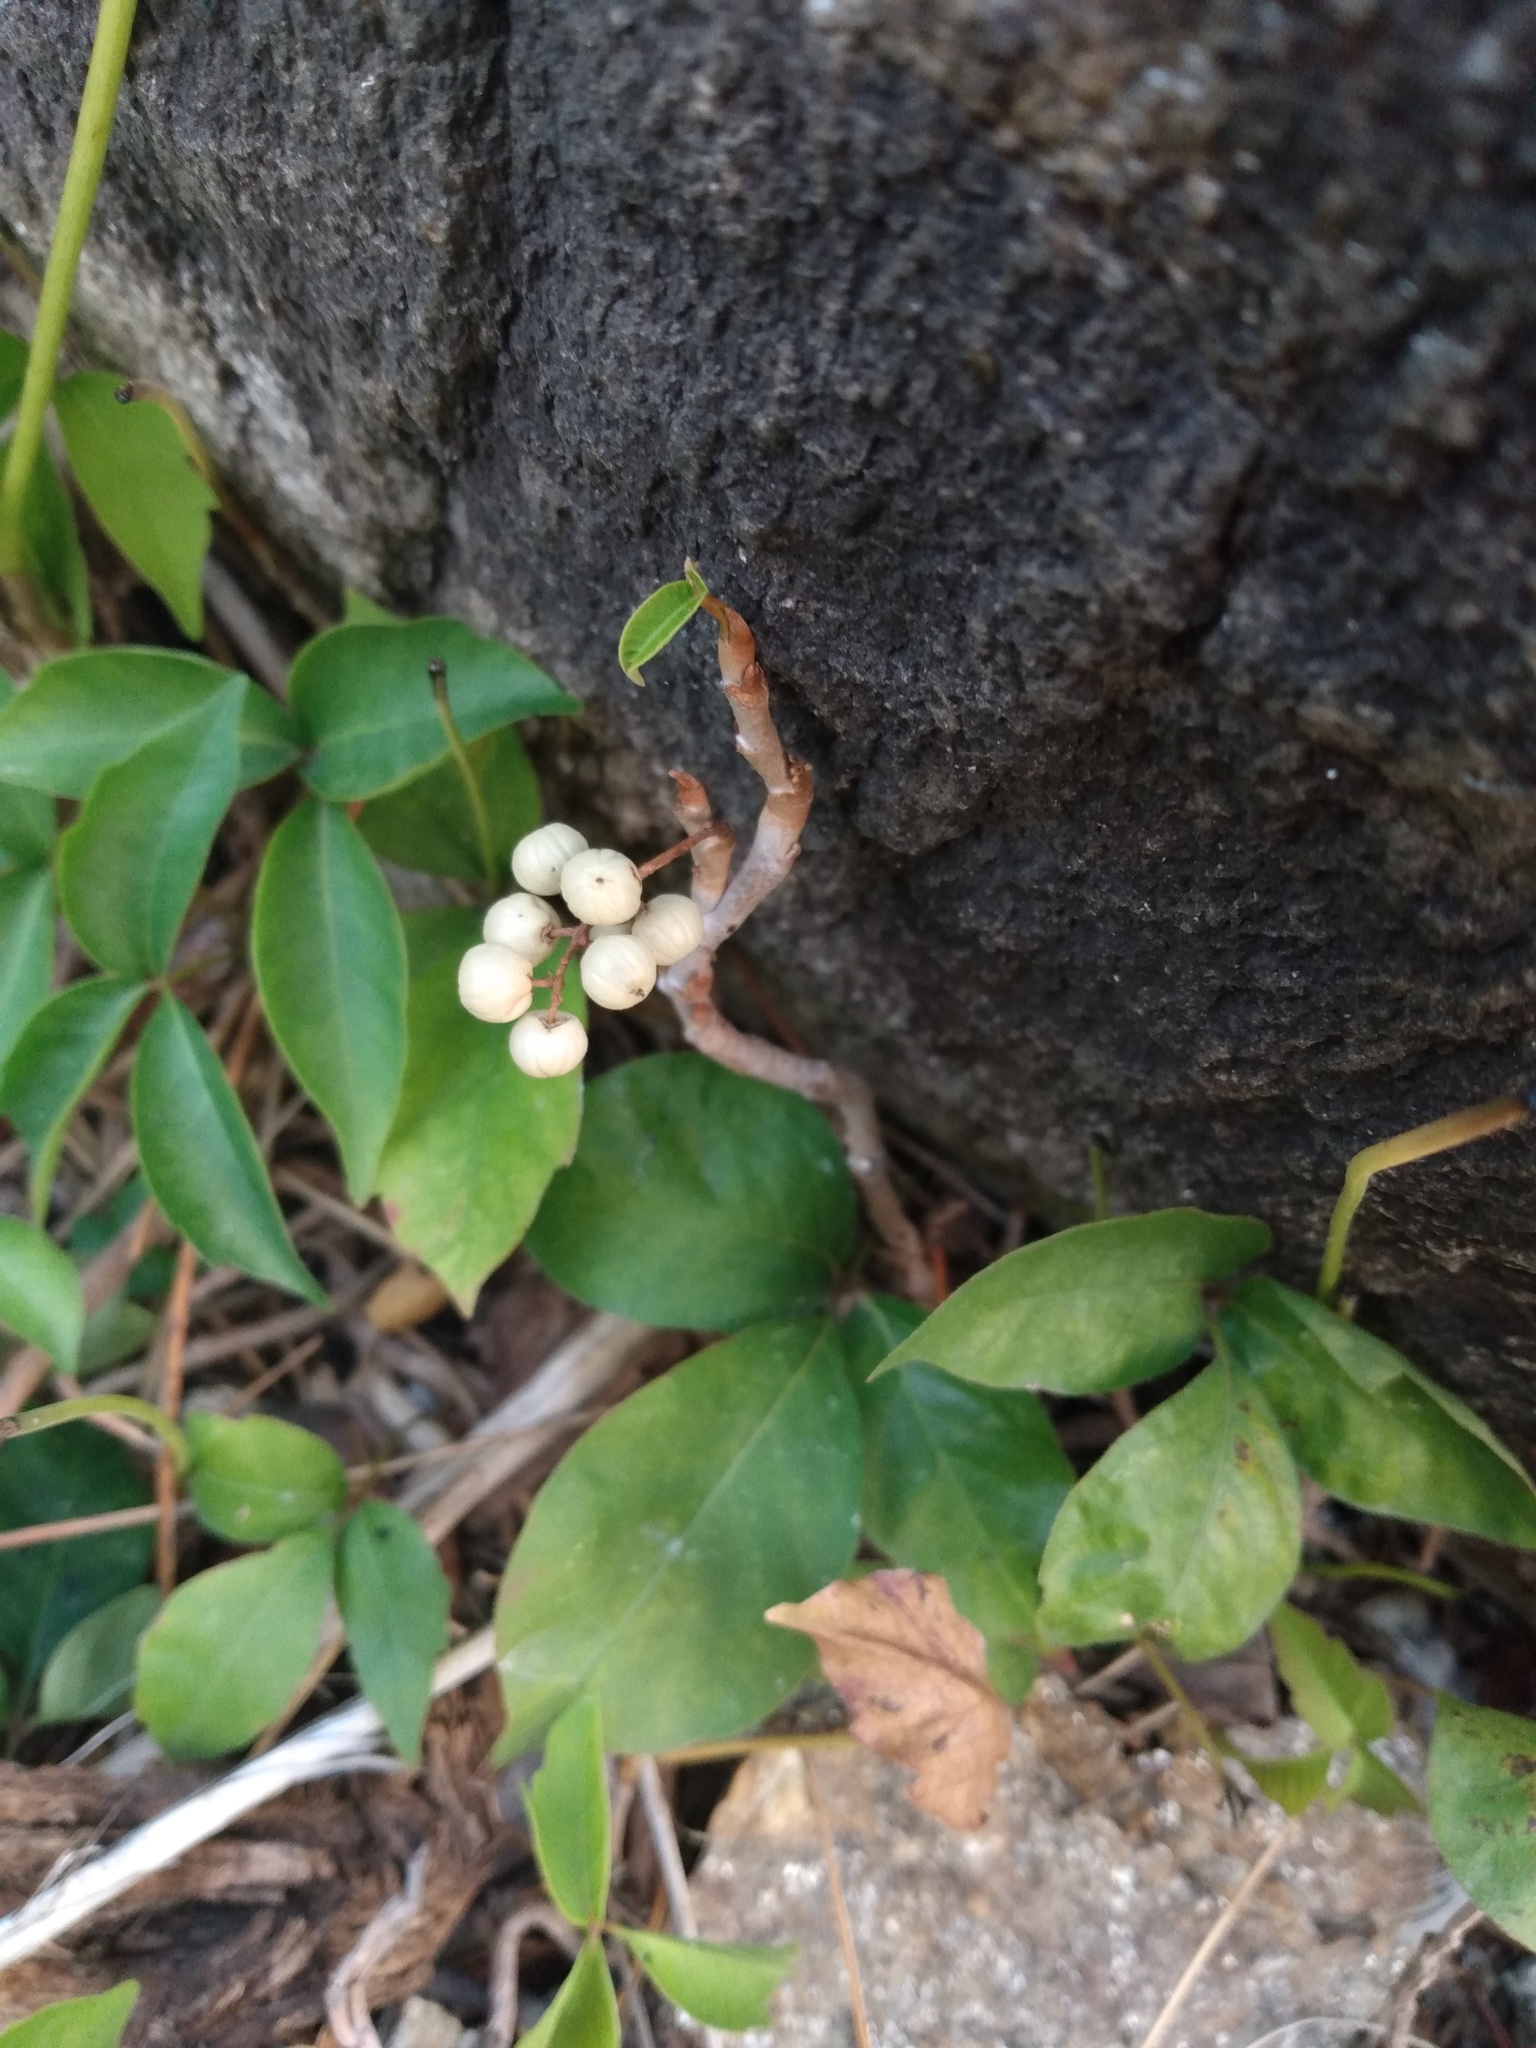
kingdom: Plantae
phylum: Tracheophyta
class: Magnoliopsida
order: Sapindales
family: Anacardiaceae
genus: Toxicodendron
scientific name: Toxicodendron rydbergii
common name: Rydberg's poison-ivy
